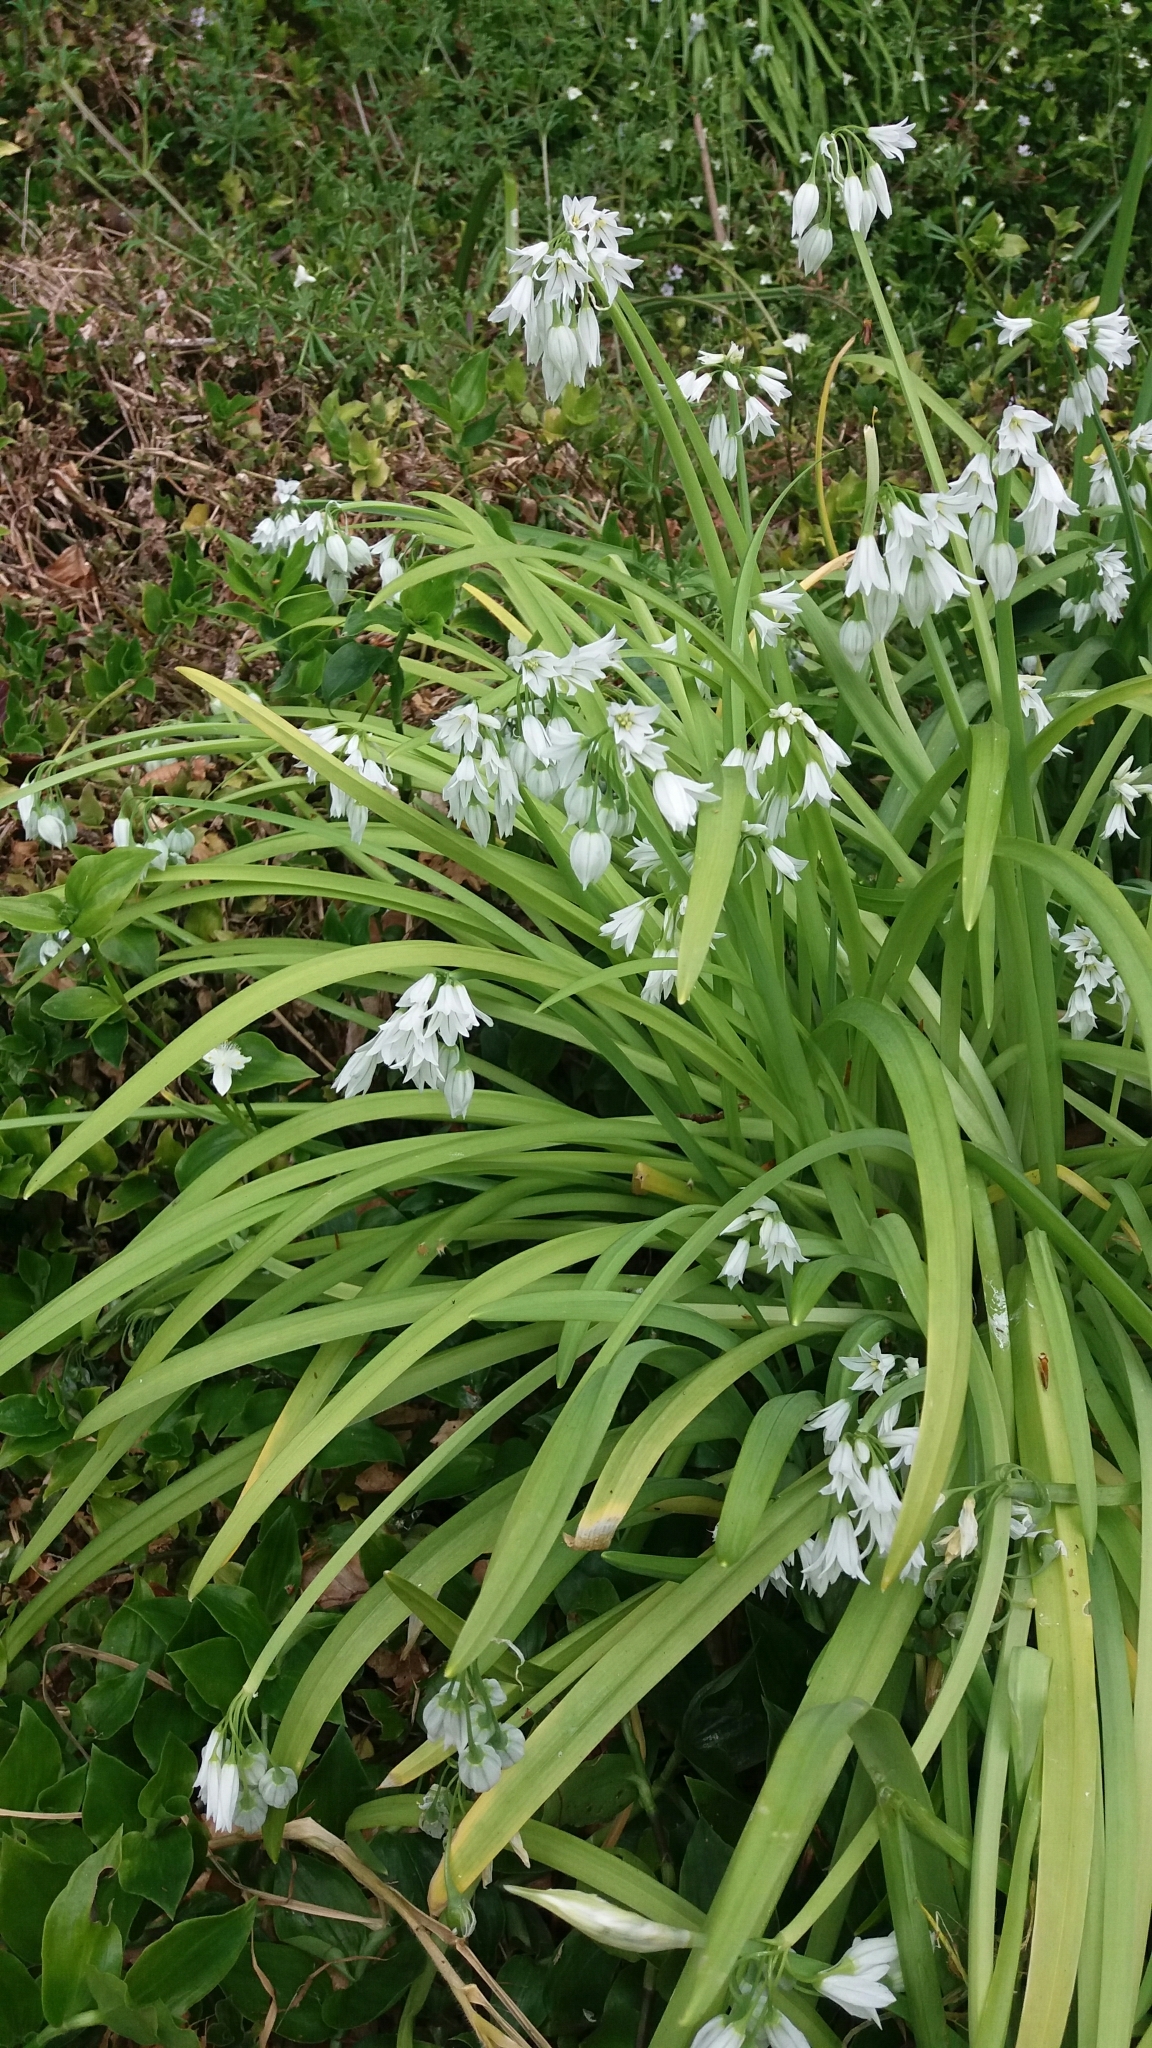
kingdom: Plantae
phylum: Tracheophyta
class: Liliopsida
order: Asparagales
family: Amaryllidaceae
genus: Allium
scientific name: Allium triquetrum
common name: Three-cornered garlic
